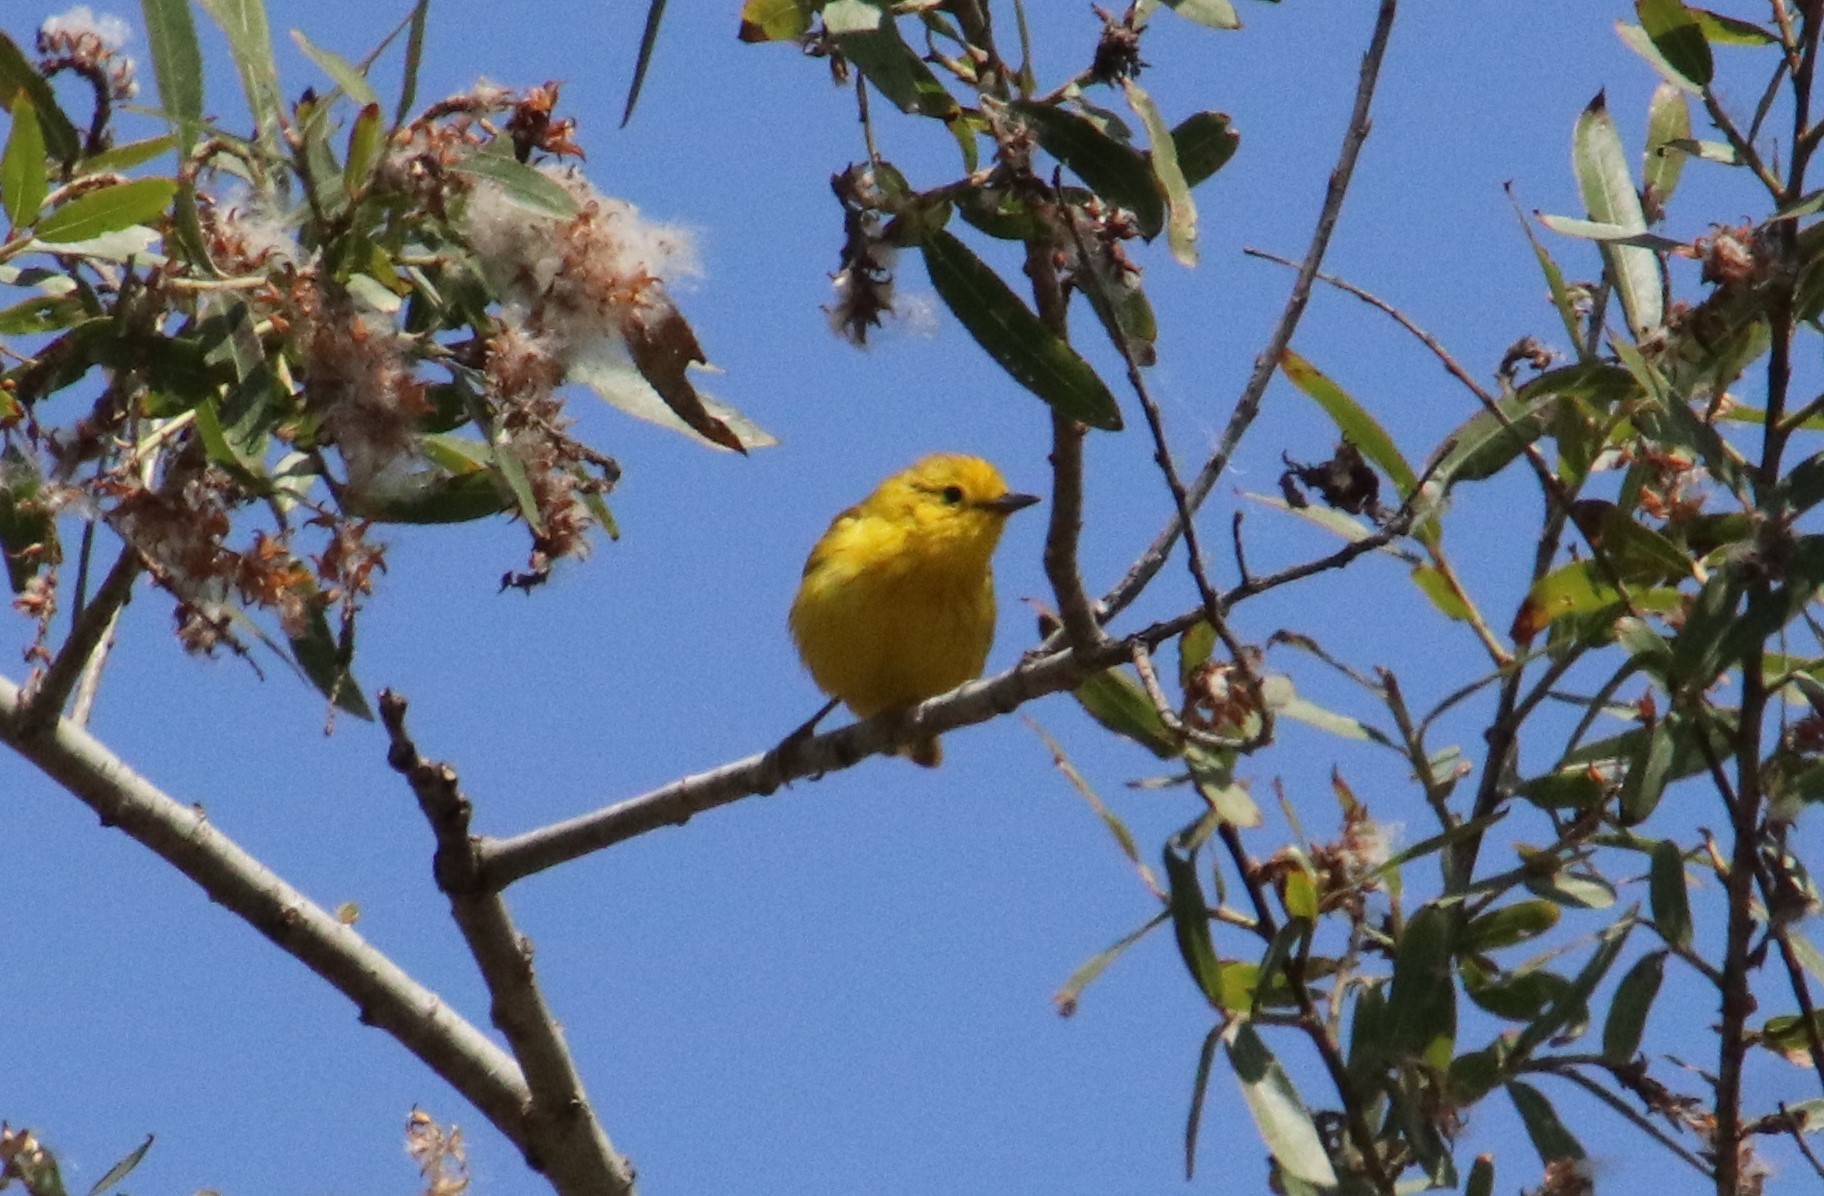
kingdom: Animalia
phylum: Chordata
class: Aves
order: Passeriformes
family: Parulidae
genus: Setophaga
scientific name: Setophaga petechia
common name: Yellow warbler
